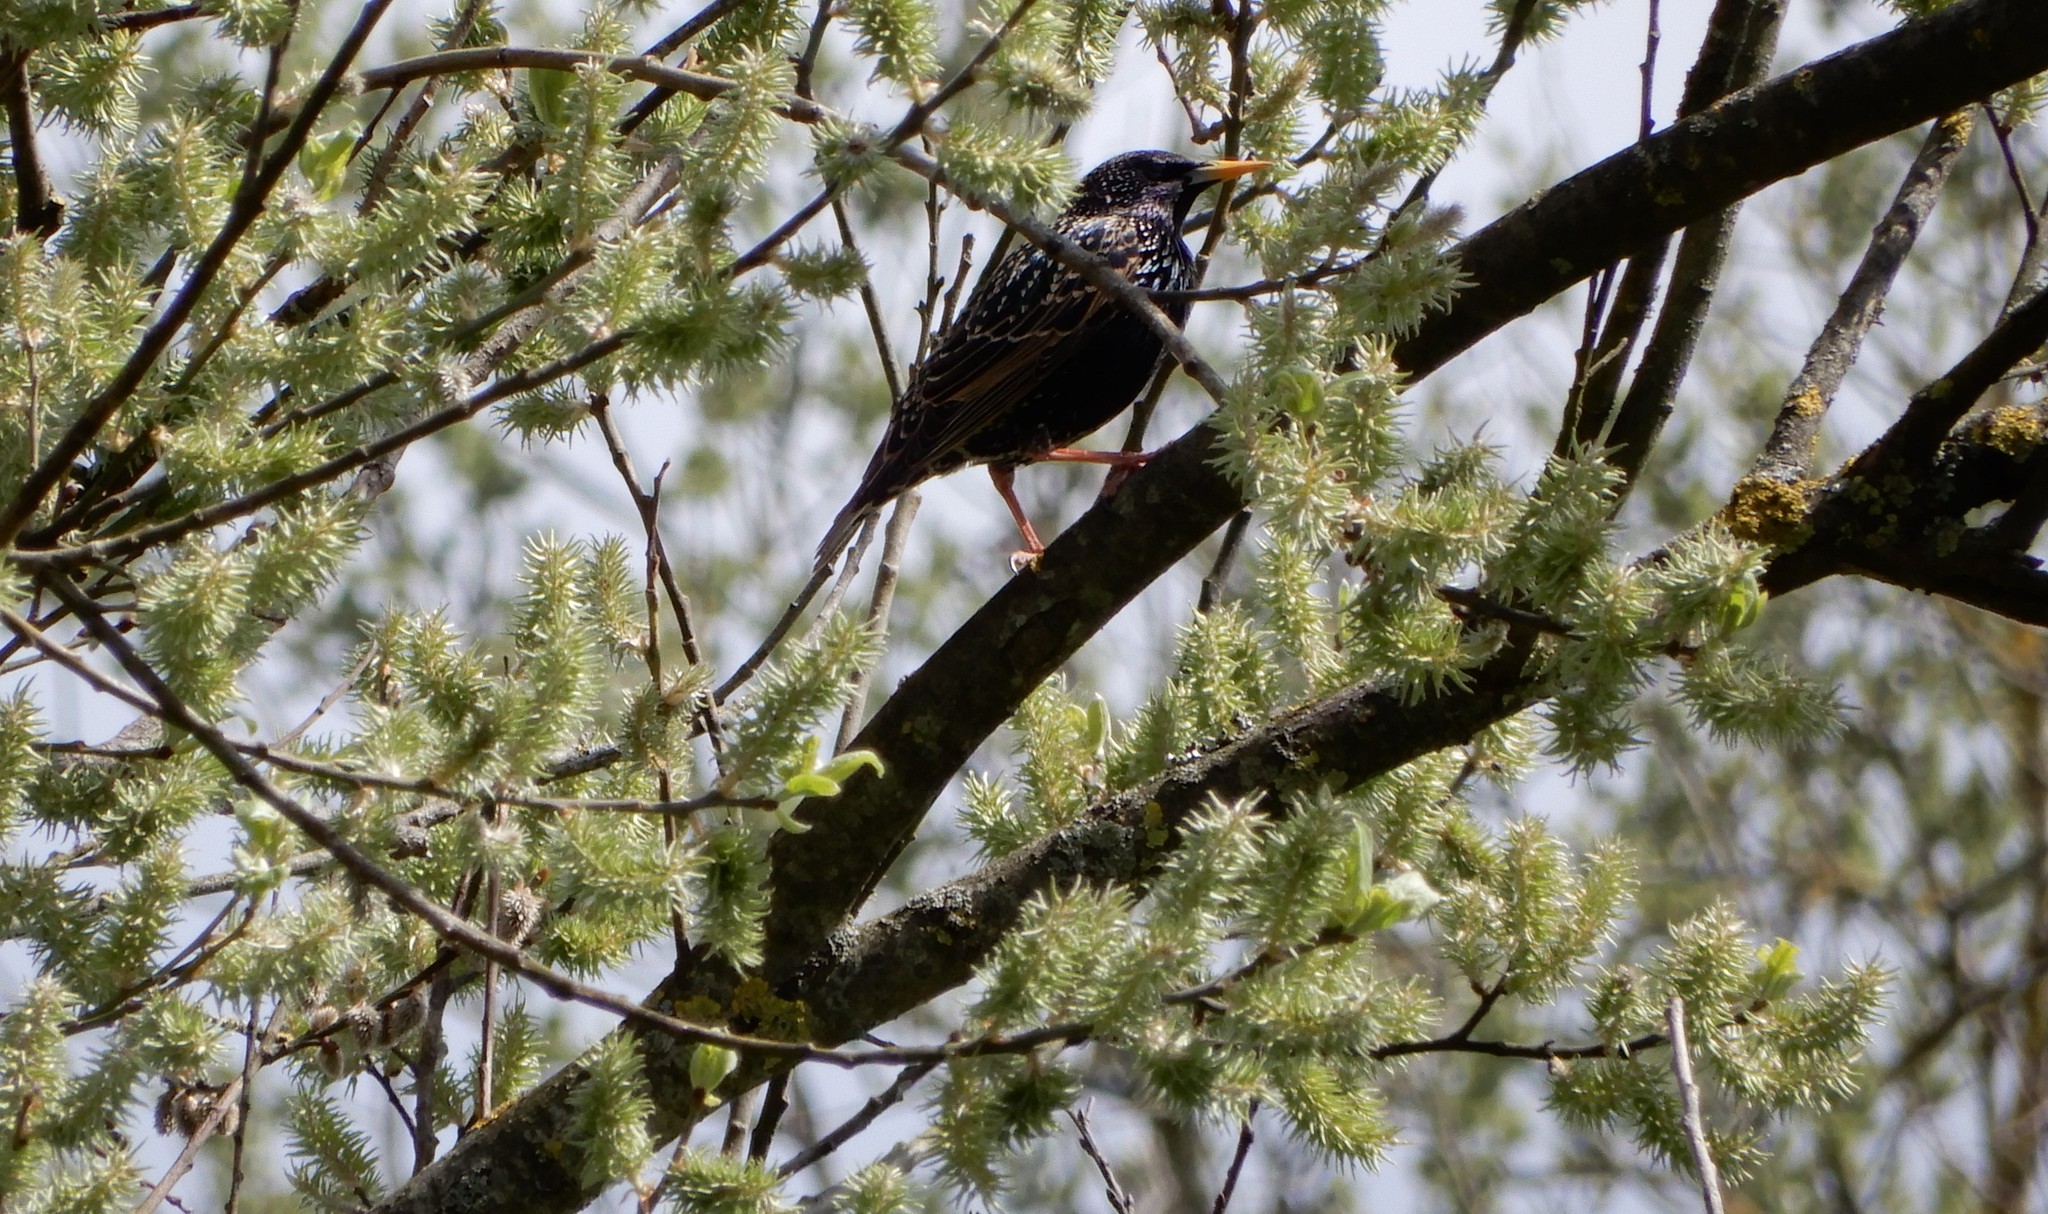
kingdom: Animalia
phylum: Chordata
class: Aves
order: Passeriformes
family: Sturnidae
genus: Sturnus
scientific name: Sturnus vulgaris
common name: Common starling
